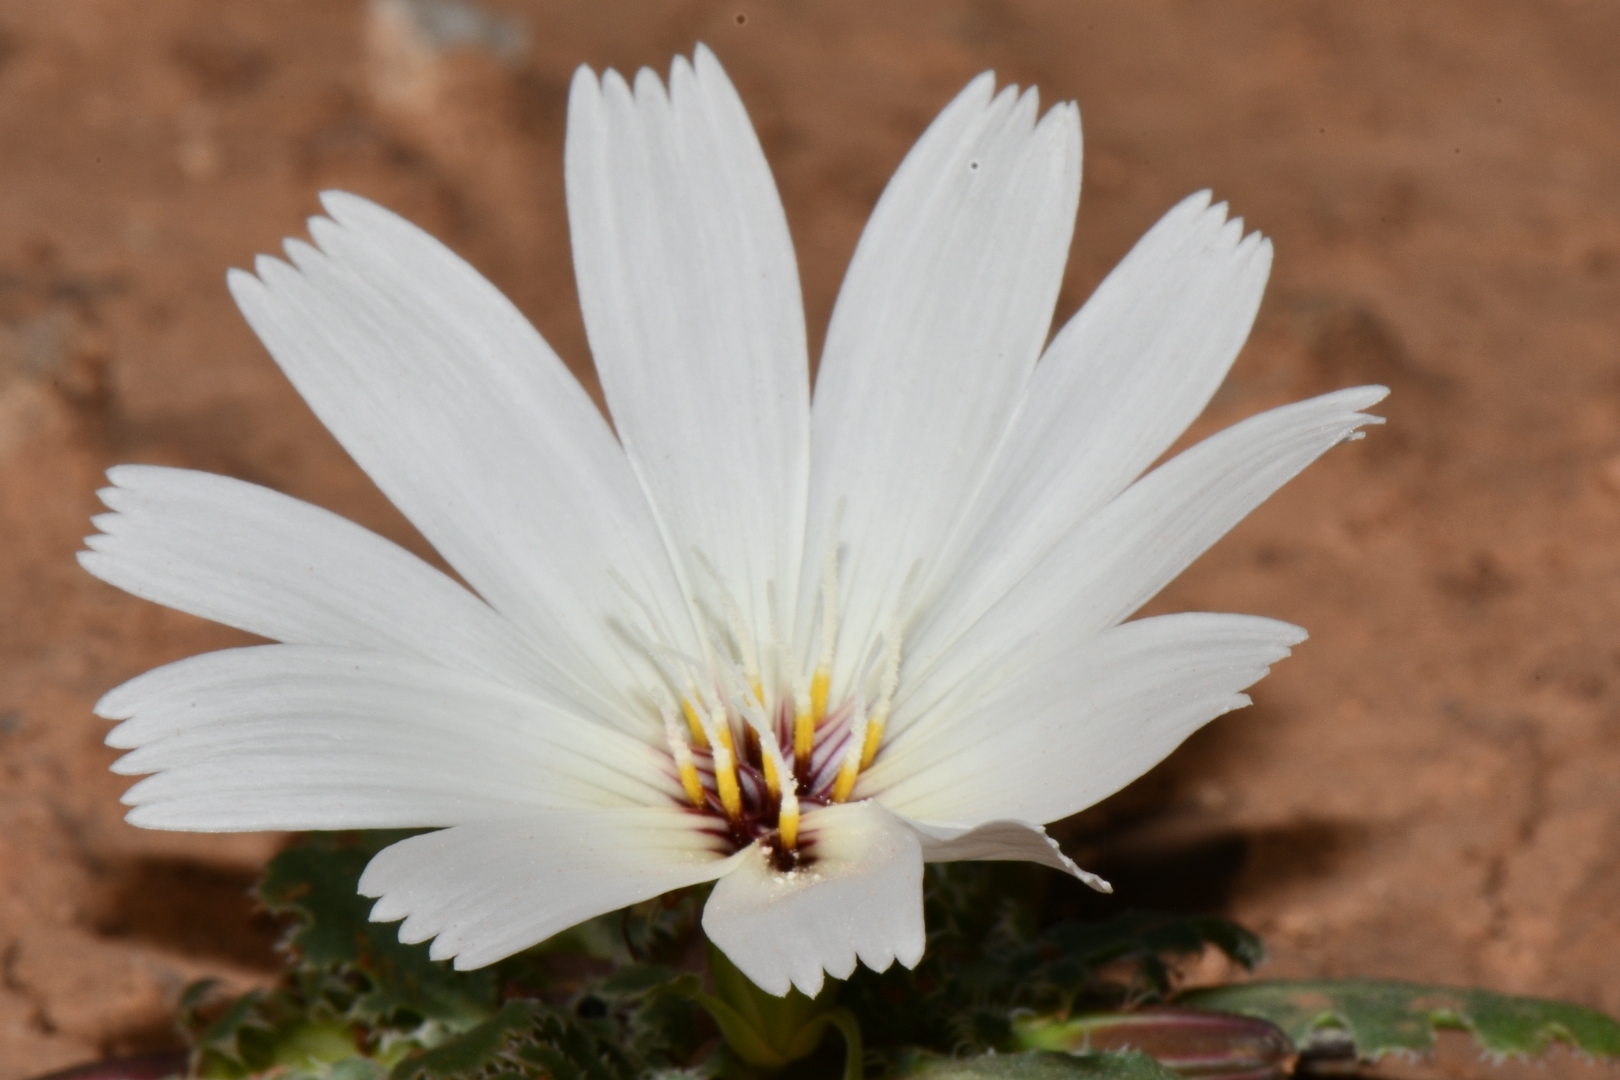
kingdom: Plantae
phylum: Tracheophyta
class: Magnoliopsida
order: Asterales
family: Asteraceae
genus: Glyptopleura
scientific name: Glyptopleura setulosa
